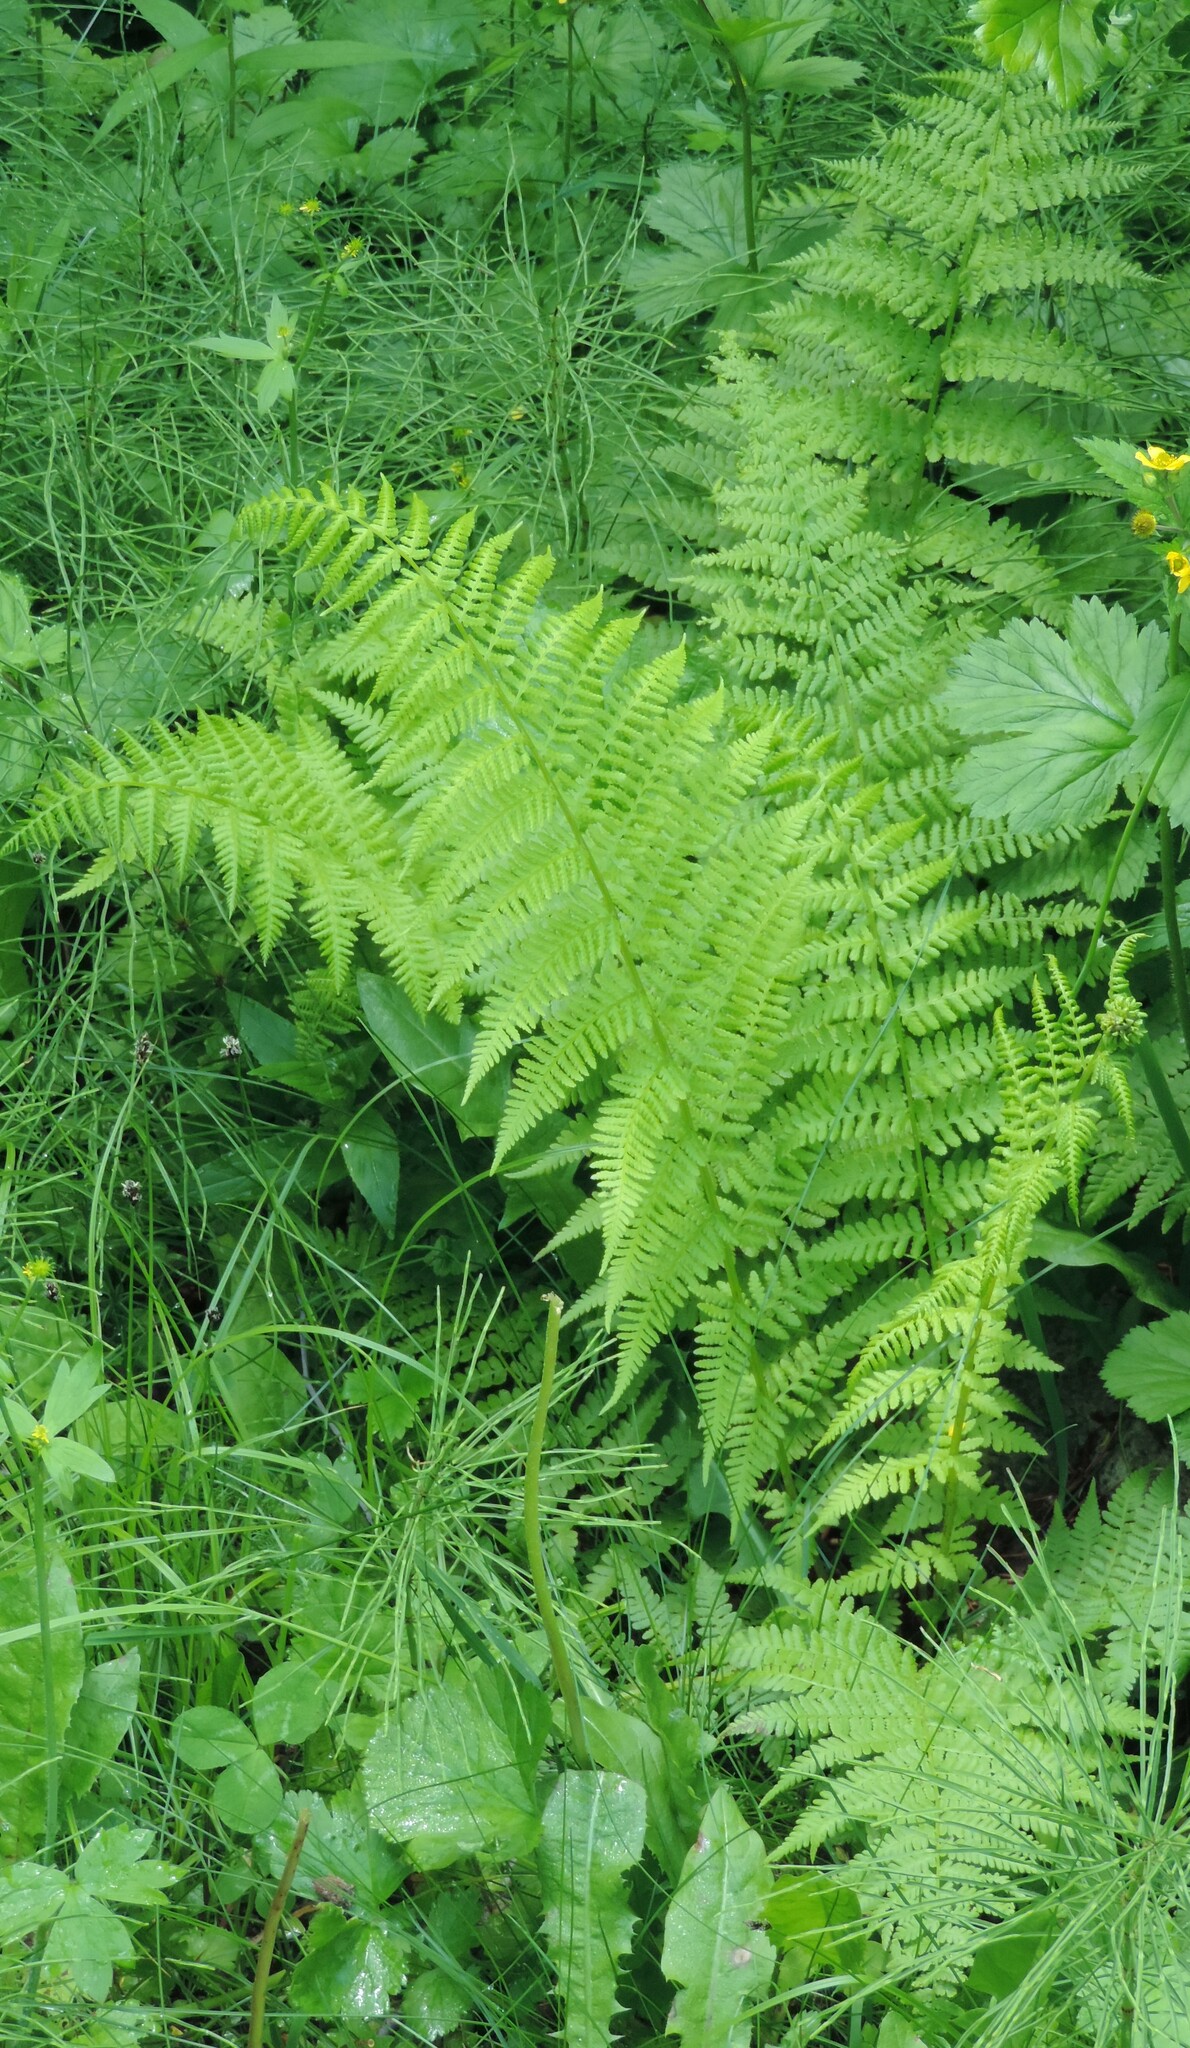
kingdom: Plantae
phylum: Tracheophyta
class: Polypodiopsida
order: Polypodiales
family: Athyriaceae
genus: Athyrium
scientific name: Athyrium filix-femina
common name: Lady fern
